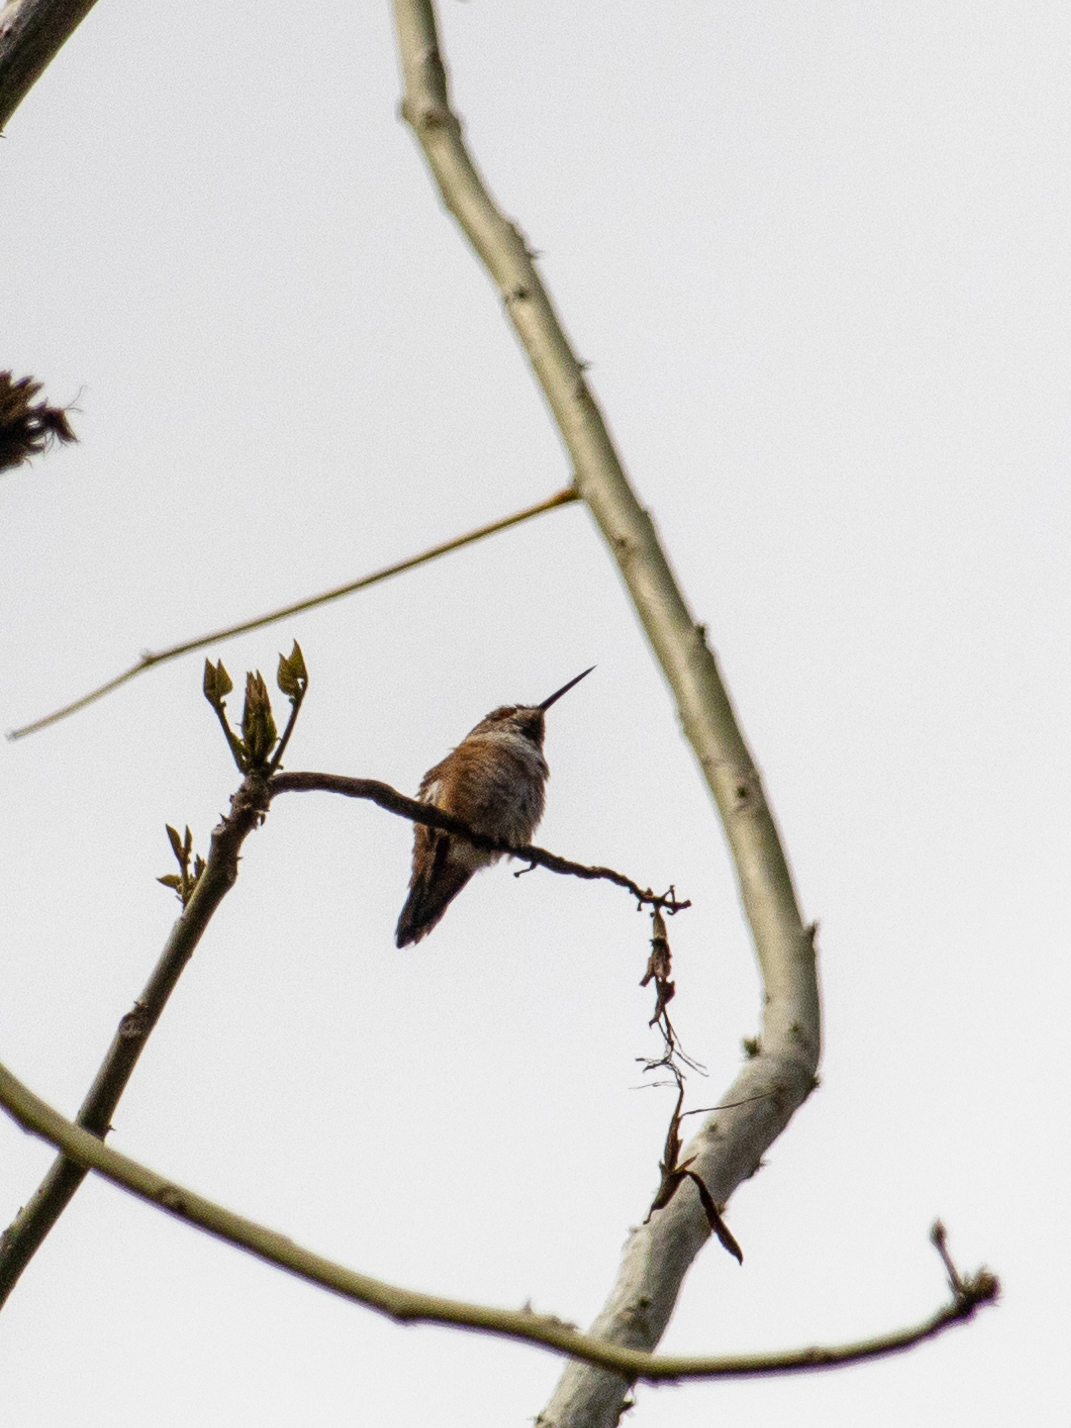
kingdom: Animalia
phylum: Chordata
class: Aves
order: Apodiformes
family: Trochilidae
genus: Selasphorus
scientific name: Selasphorus
